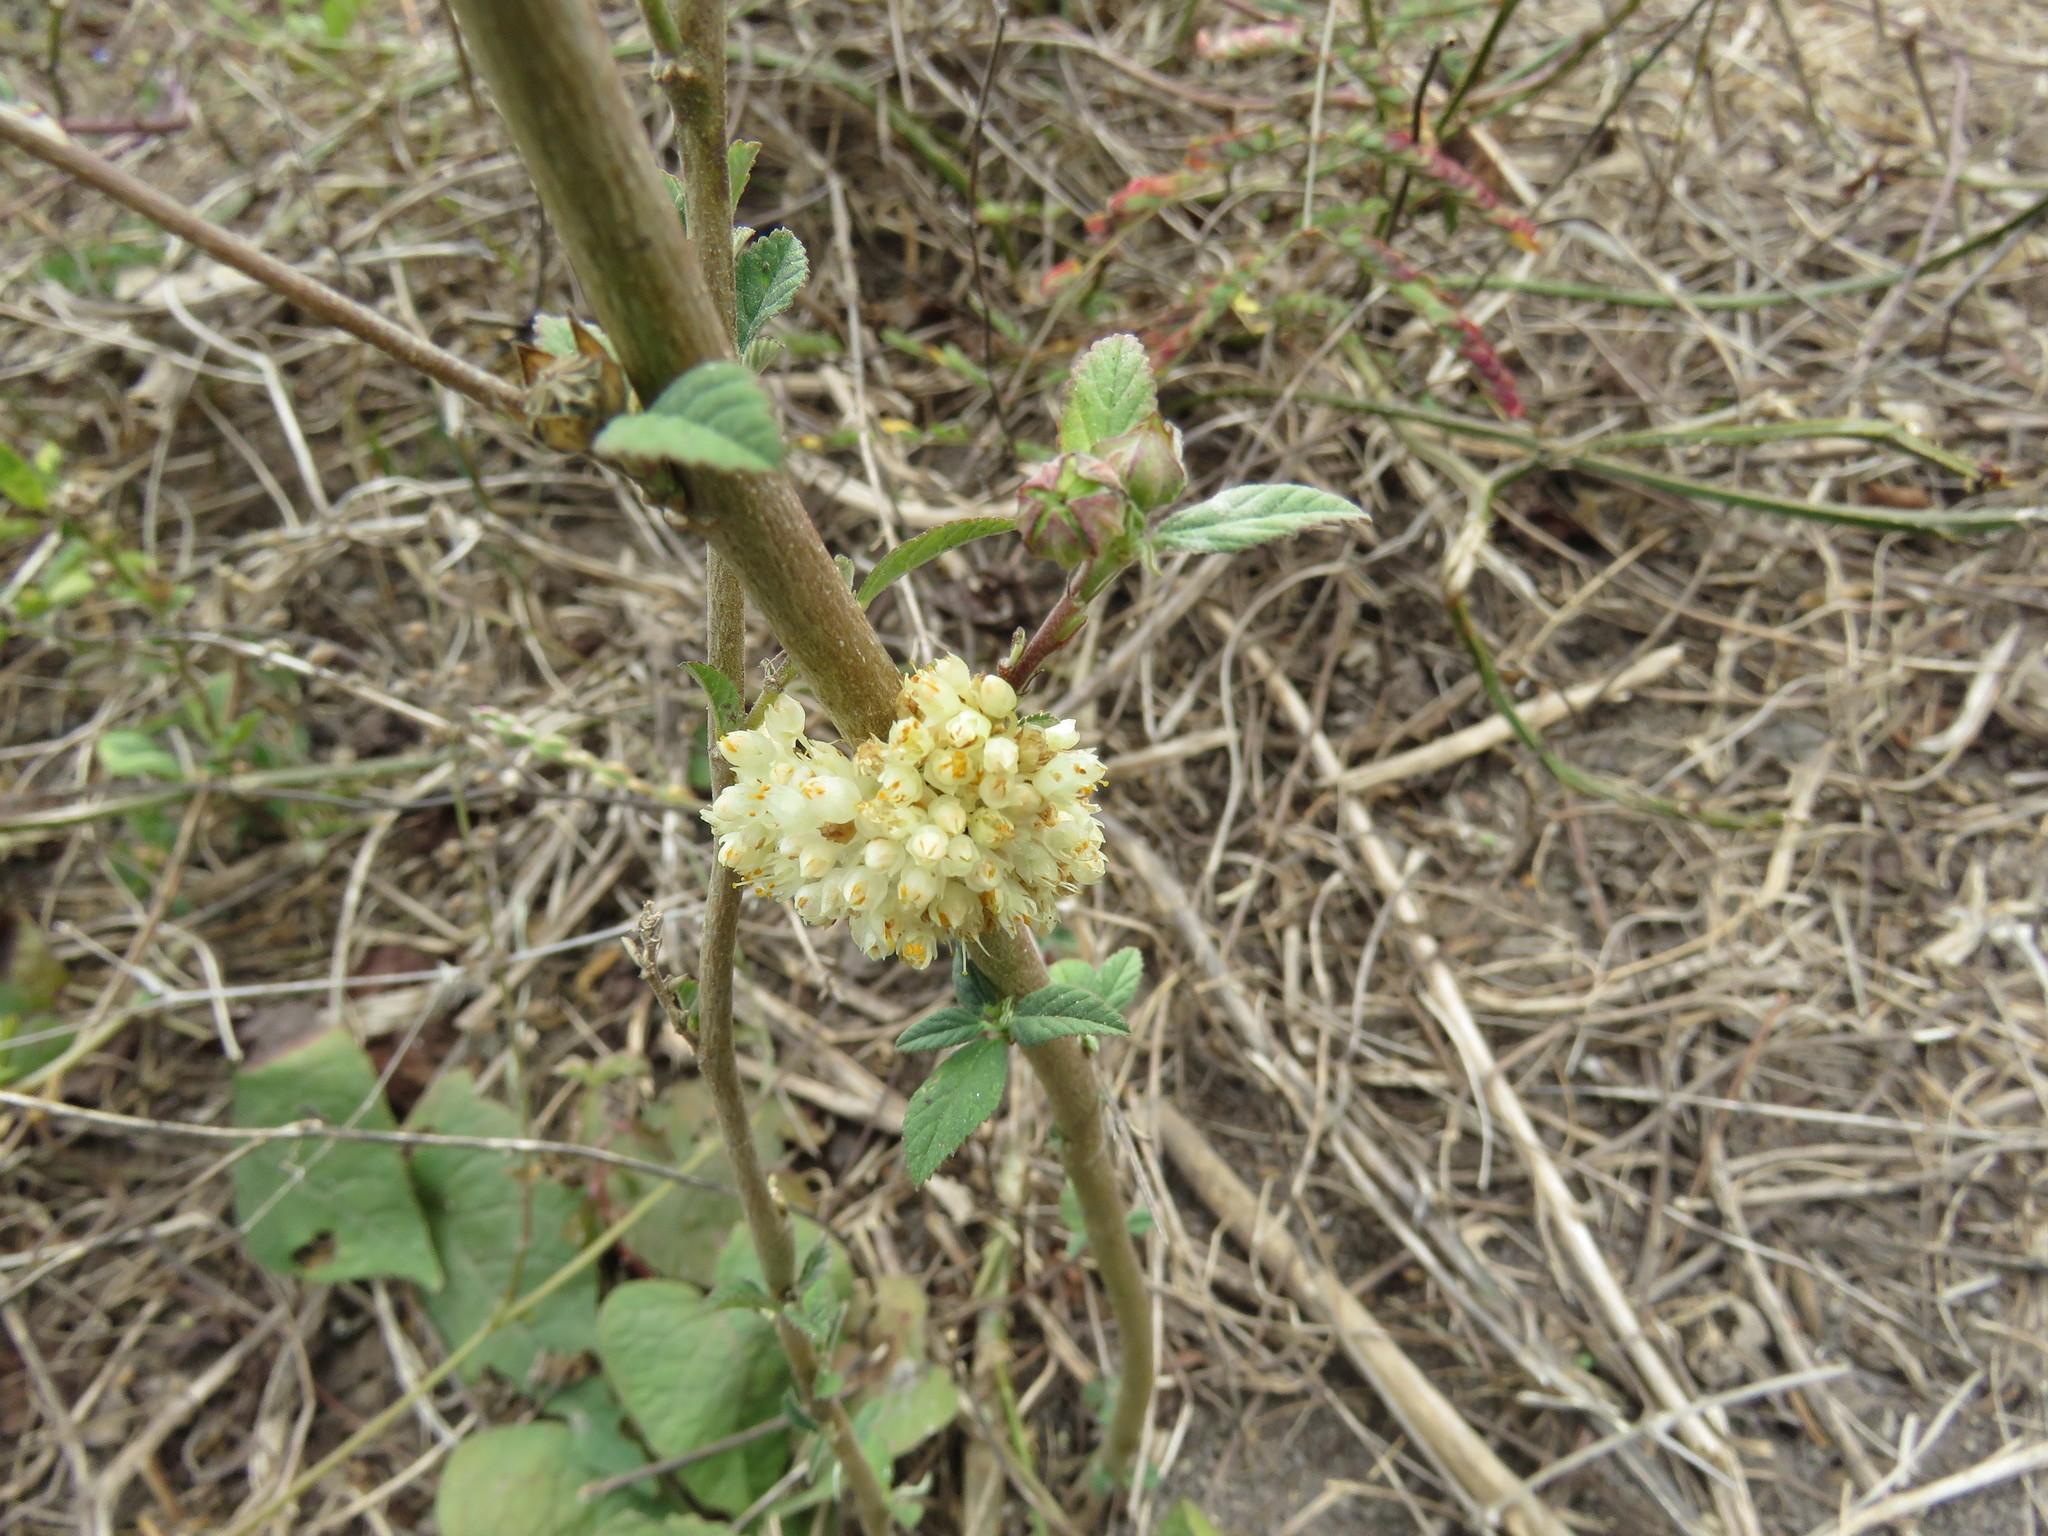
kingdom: Plantae
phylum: Tracheophyta
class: Magnoliopsida
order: Solanales
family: Convolvulaceae
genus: Cuscuta
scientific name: Cuscuta umbellata
